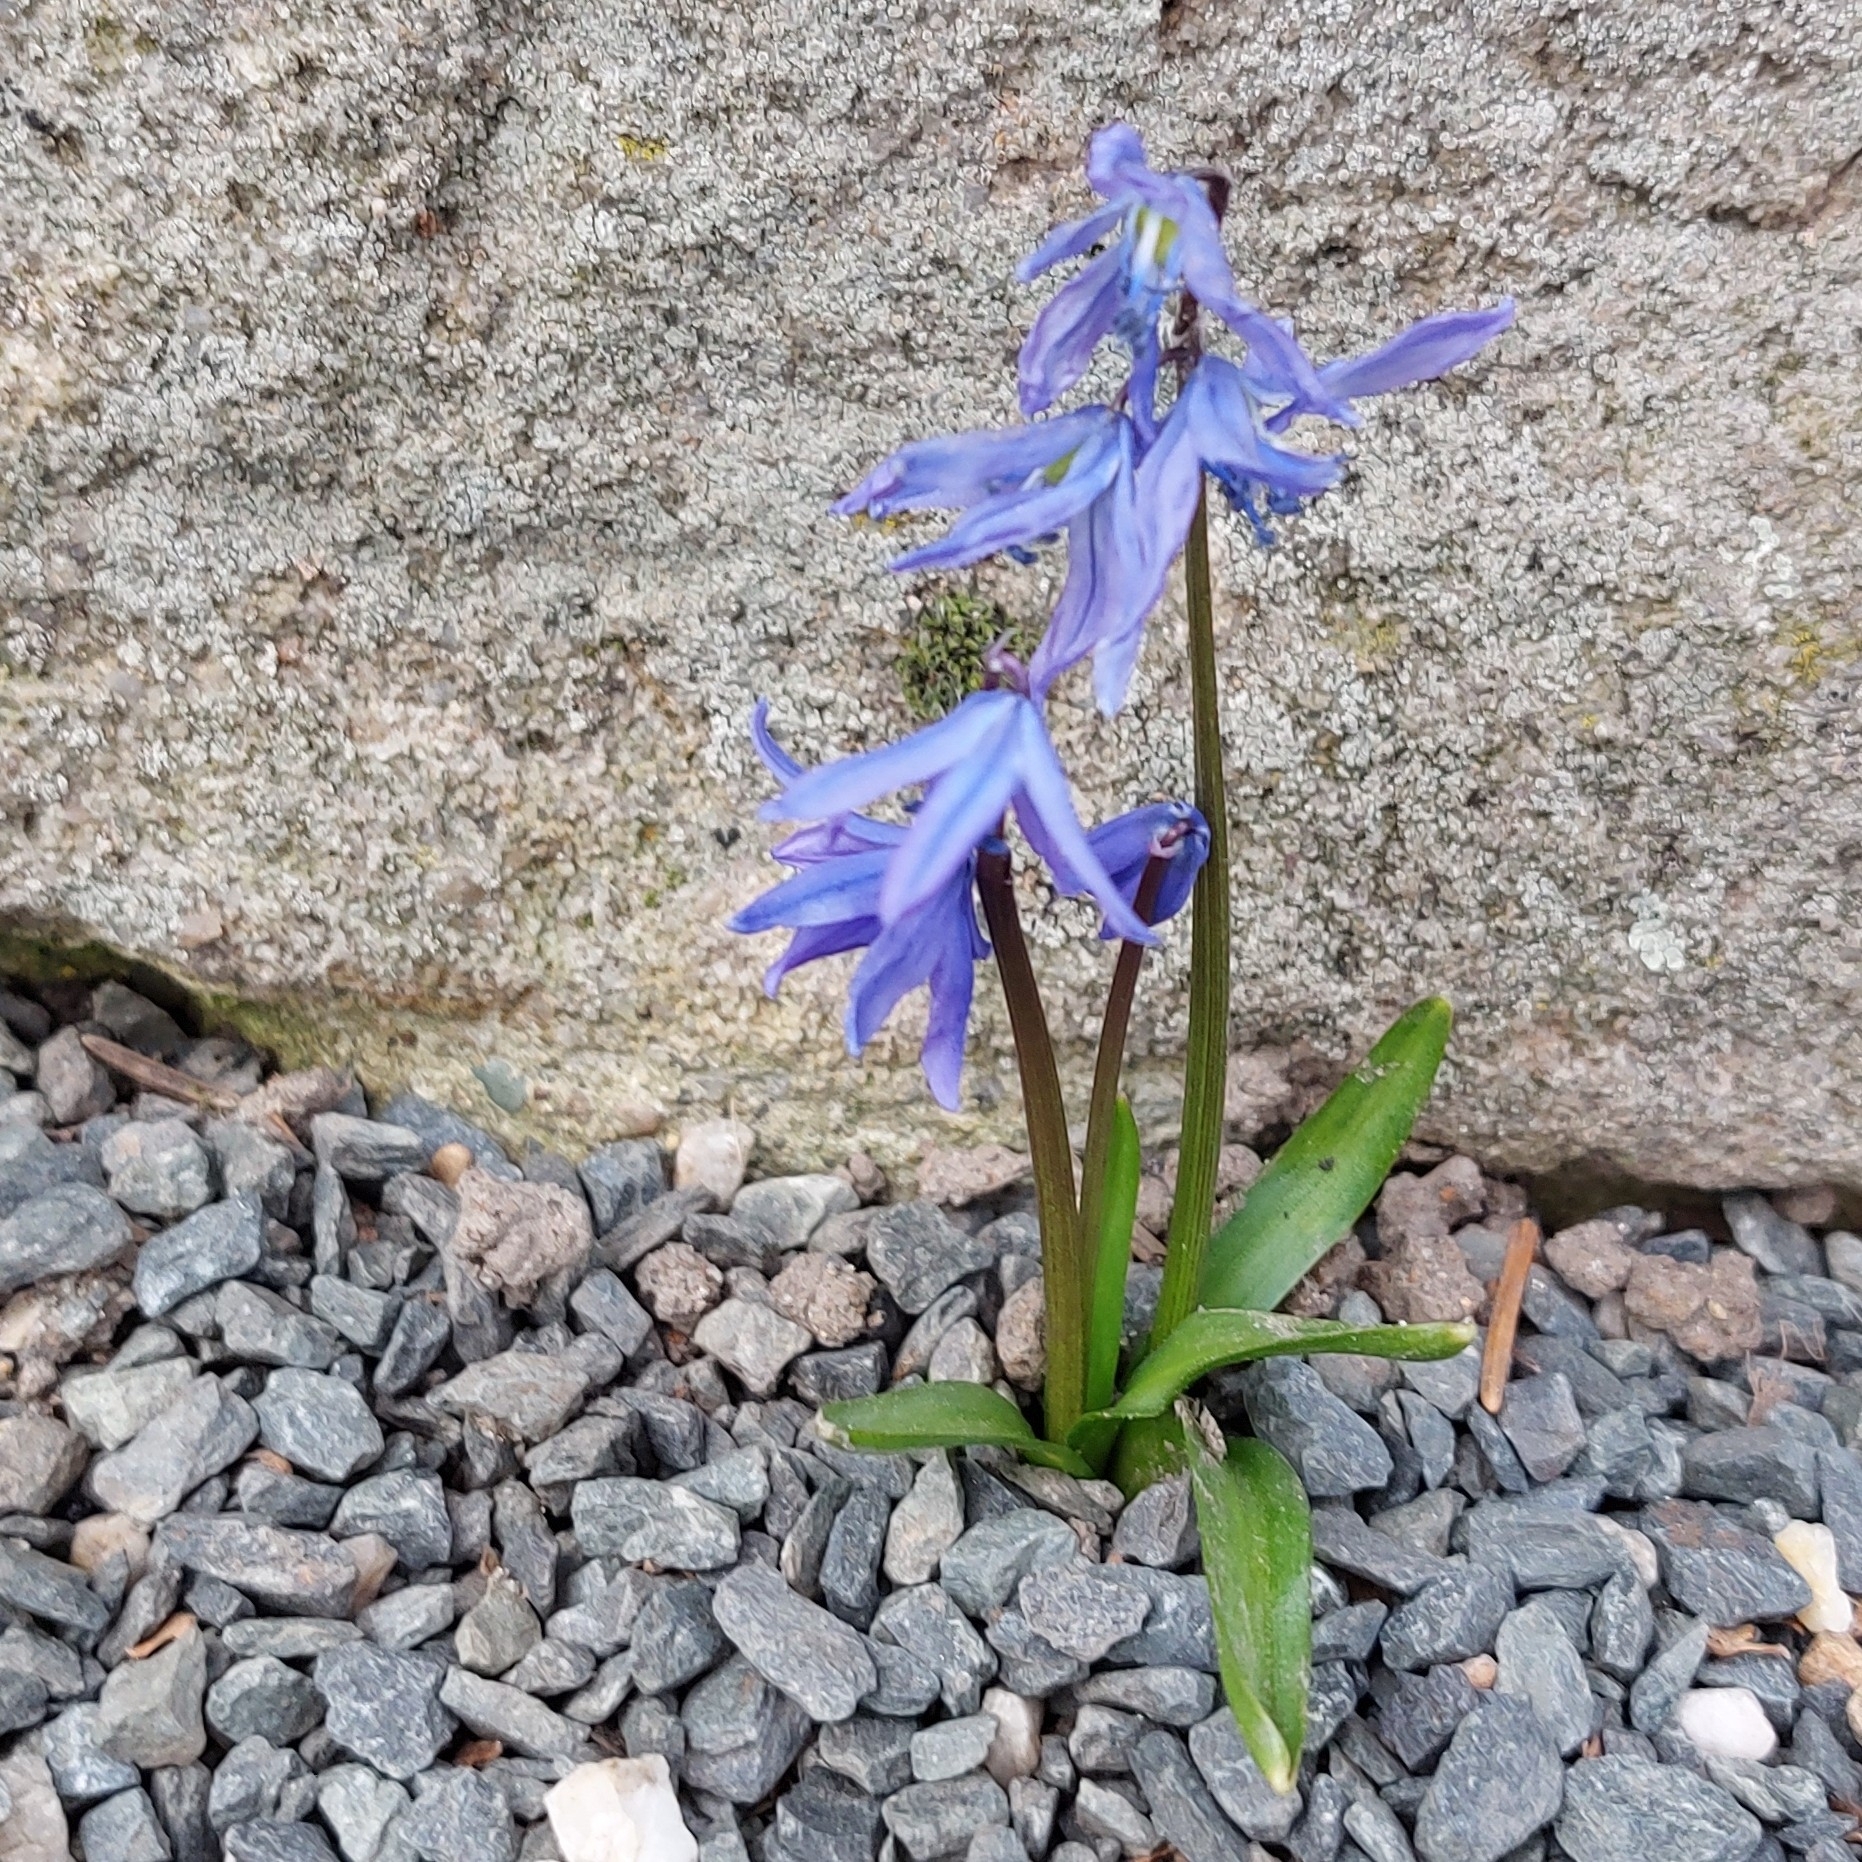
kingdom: Plantae
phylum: Tracheophyta
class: Liliopsida
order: Asparagales
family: Asparagaceae
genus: Scilla
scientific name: Scilla siberica
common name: Siberian squill
